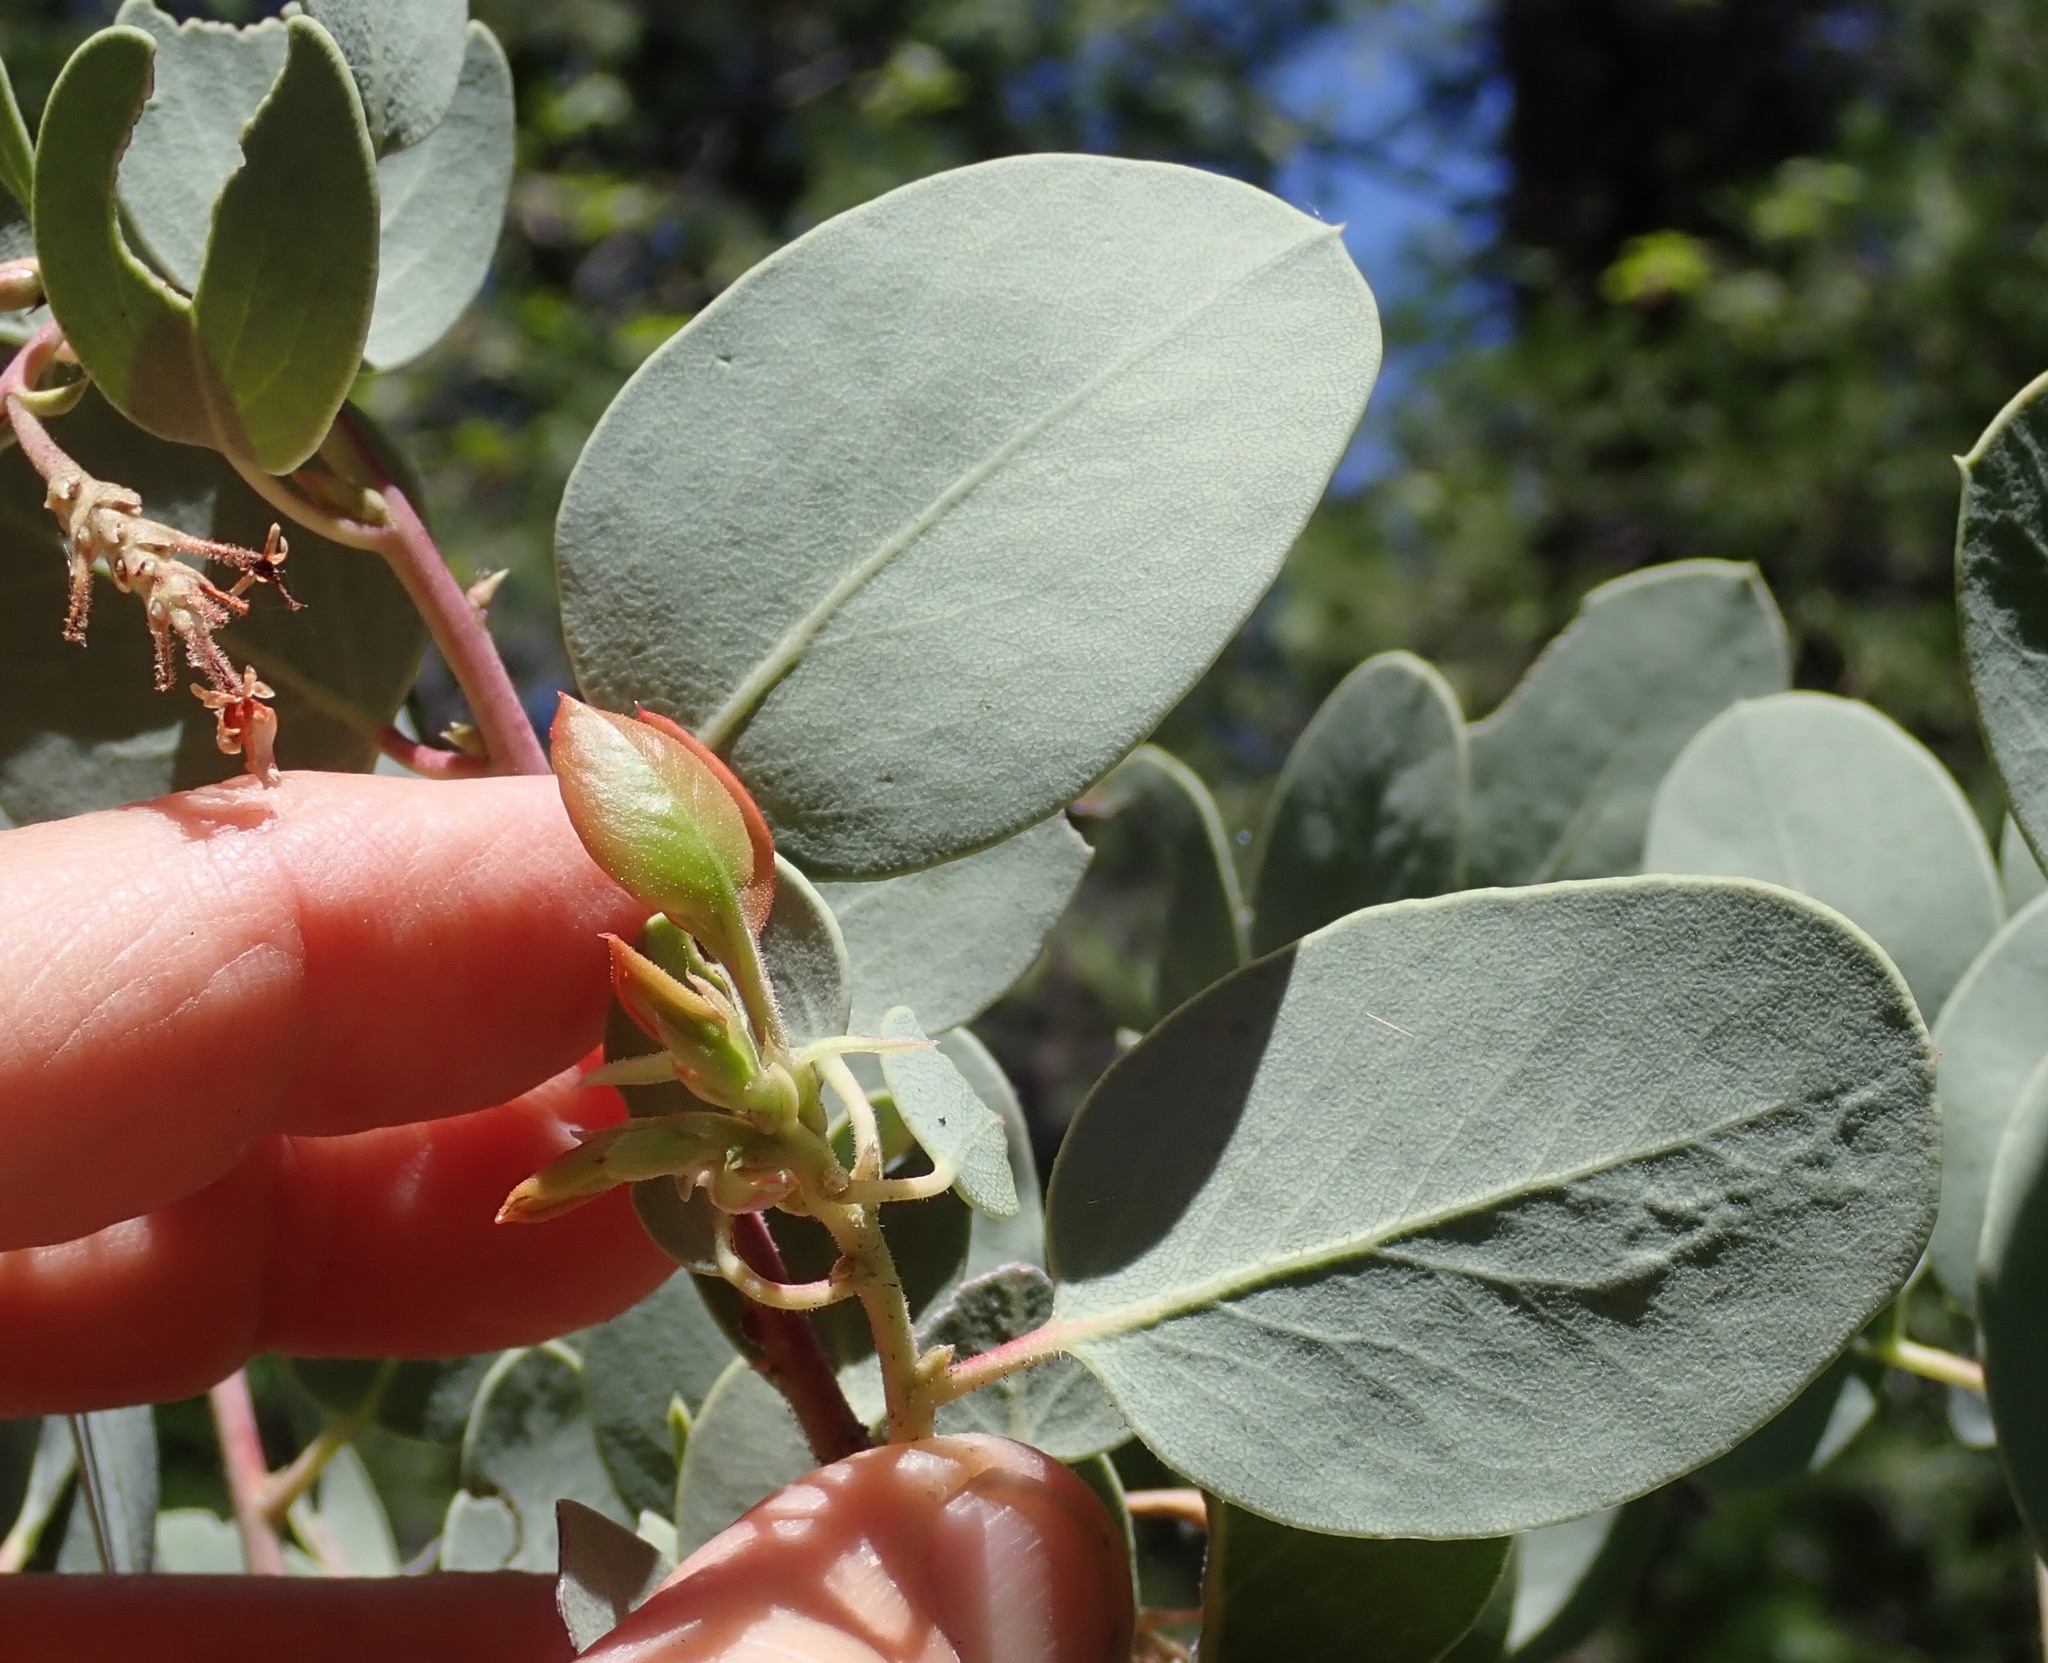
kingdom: Plantae
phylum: Tracheophyta
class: Magnoliopsida
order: Ericales
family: Ericaceae
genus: Arctostaphylos
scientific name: Arctostaphylos viscida
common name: White-leaf manzanita
